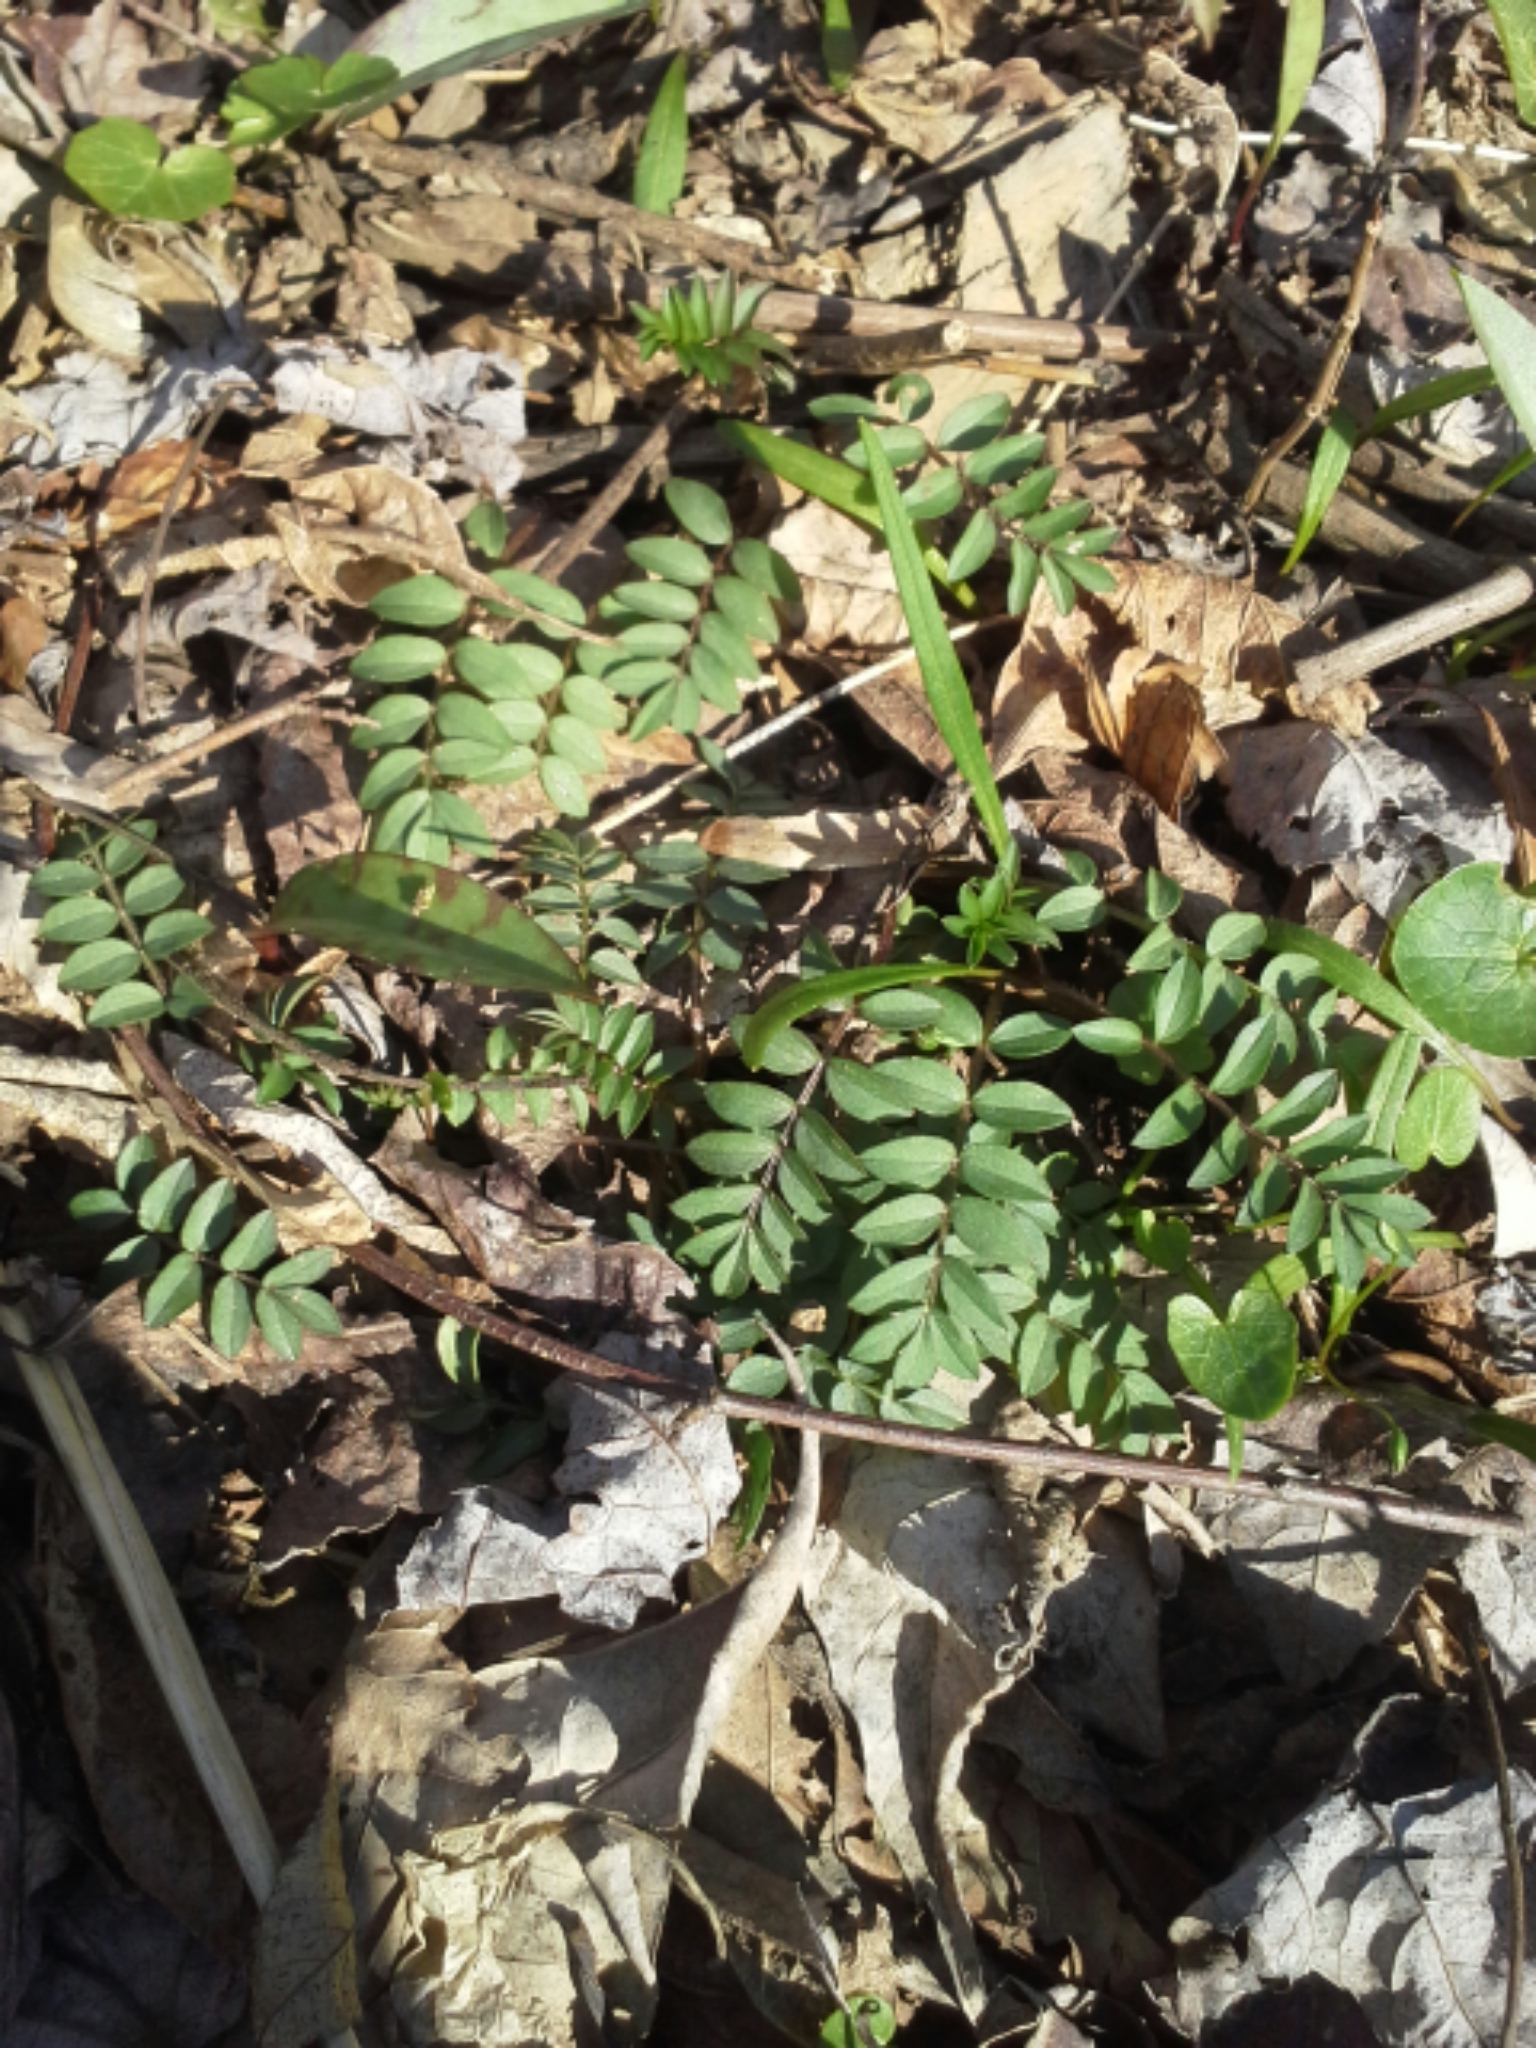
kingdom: Plantae
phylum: Tracheophyta
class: Magnoliopsida
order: Ericales
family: Polemoniaceae
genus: Polemonium
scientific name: Polemonium reptans
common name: Creeping jacob's-ladder
